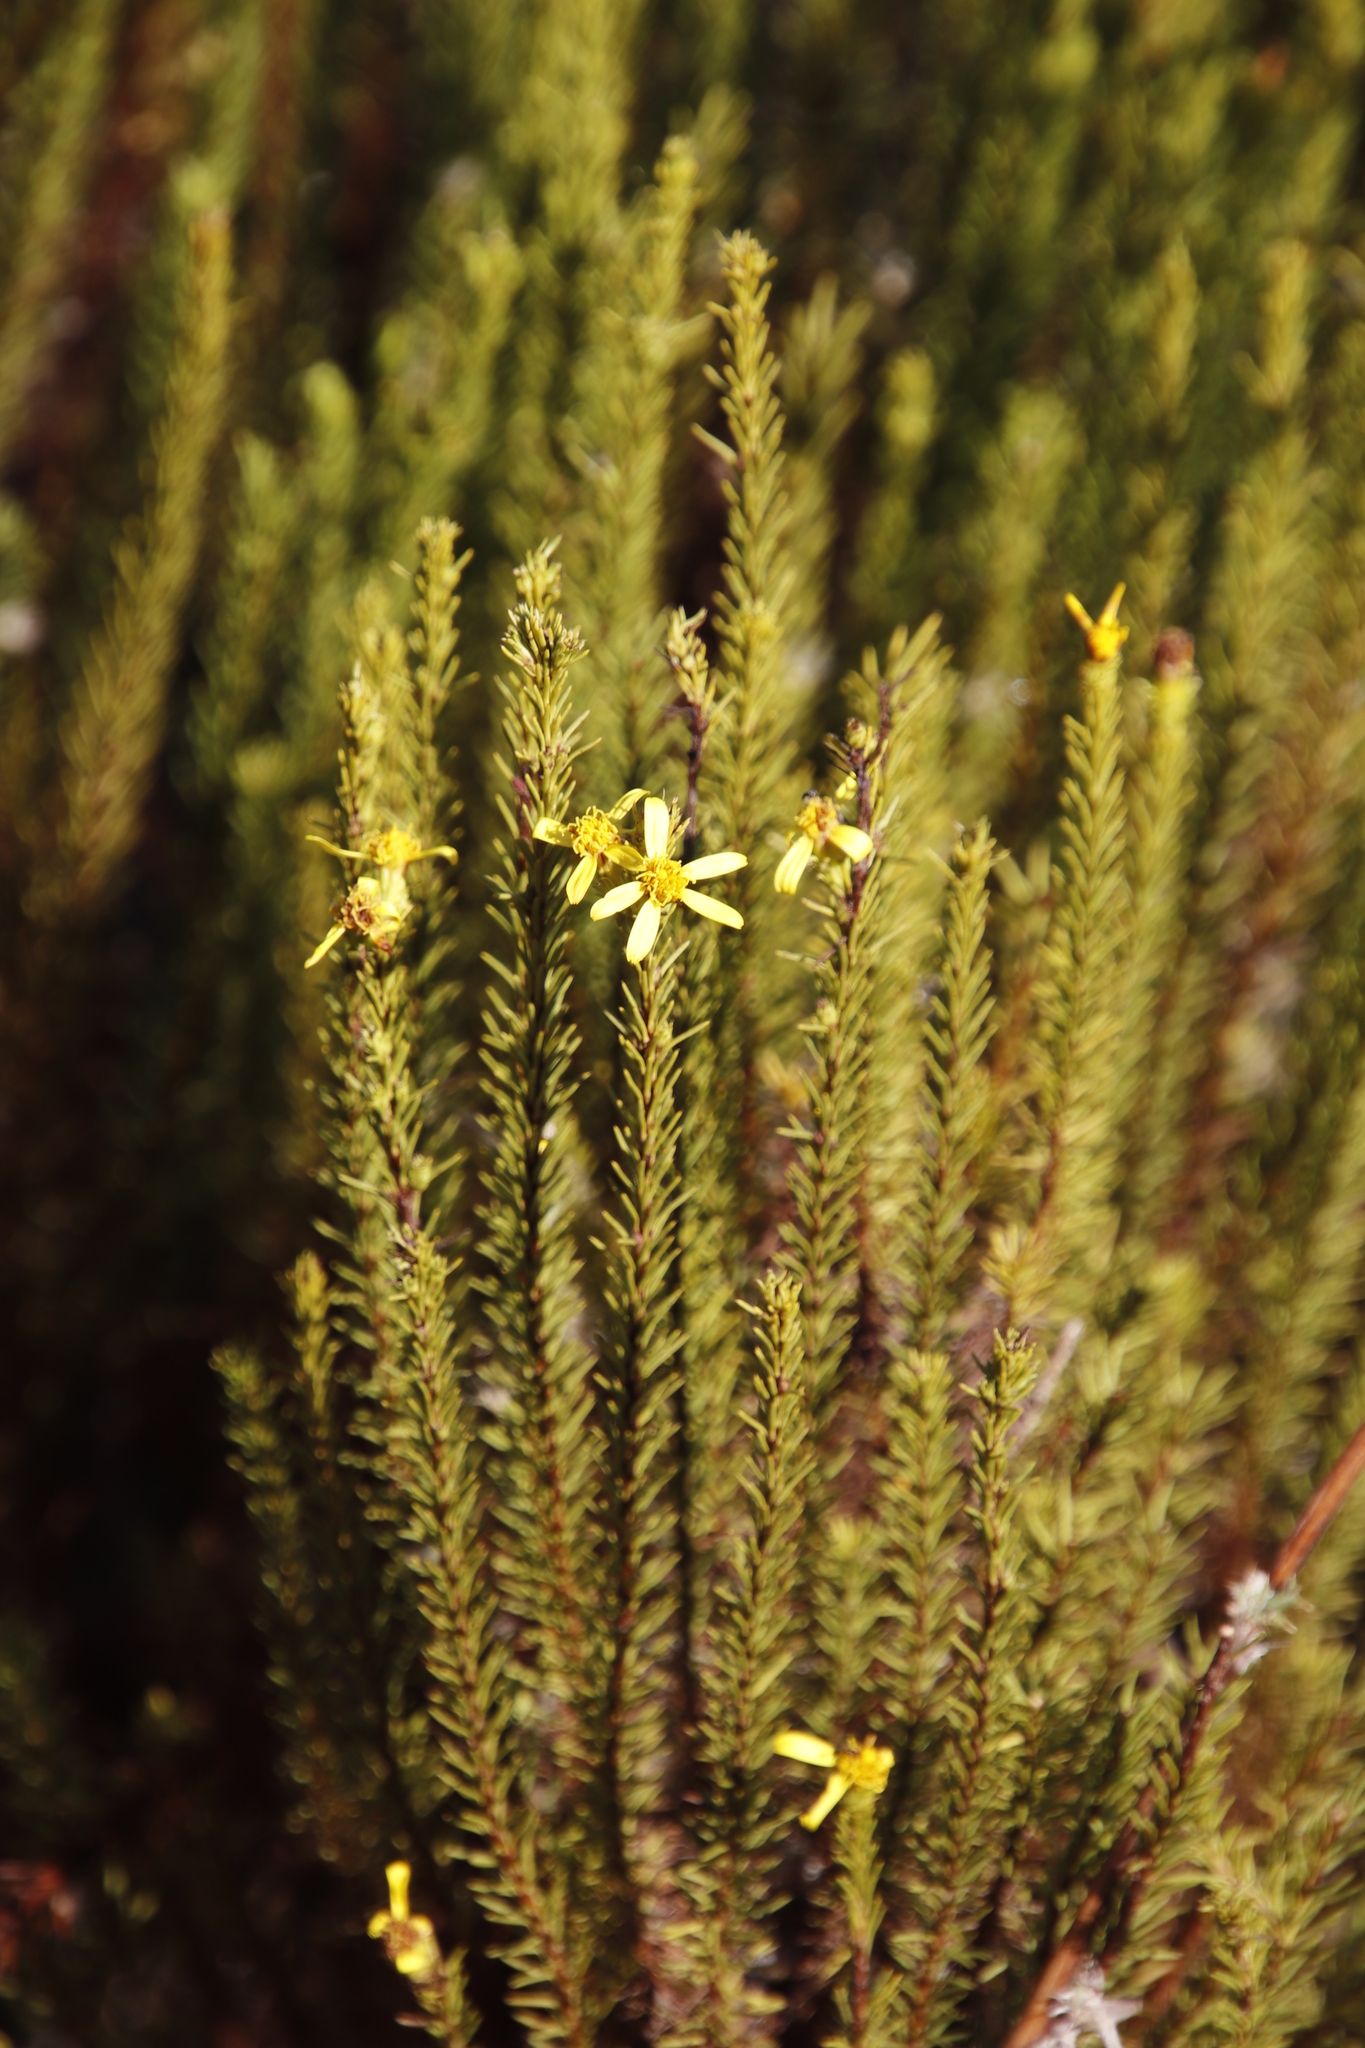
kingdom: Plantae
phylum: Tracheophyta
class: Magnoliopsida
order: Asterales
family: Asteraceae
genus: Senecio
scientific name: Senecio pinifolius
